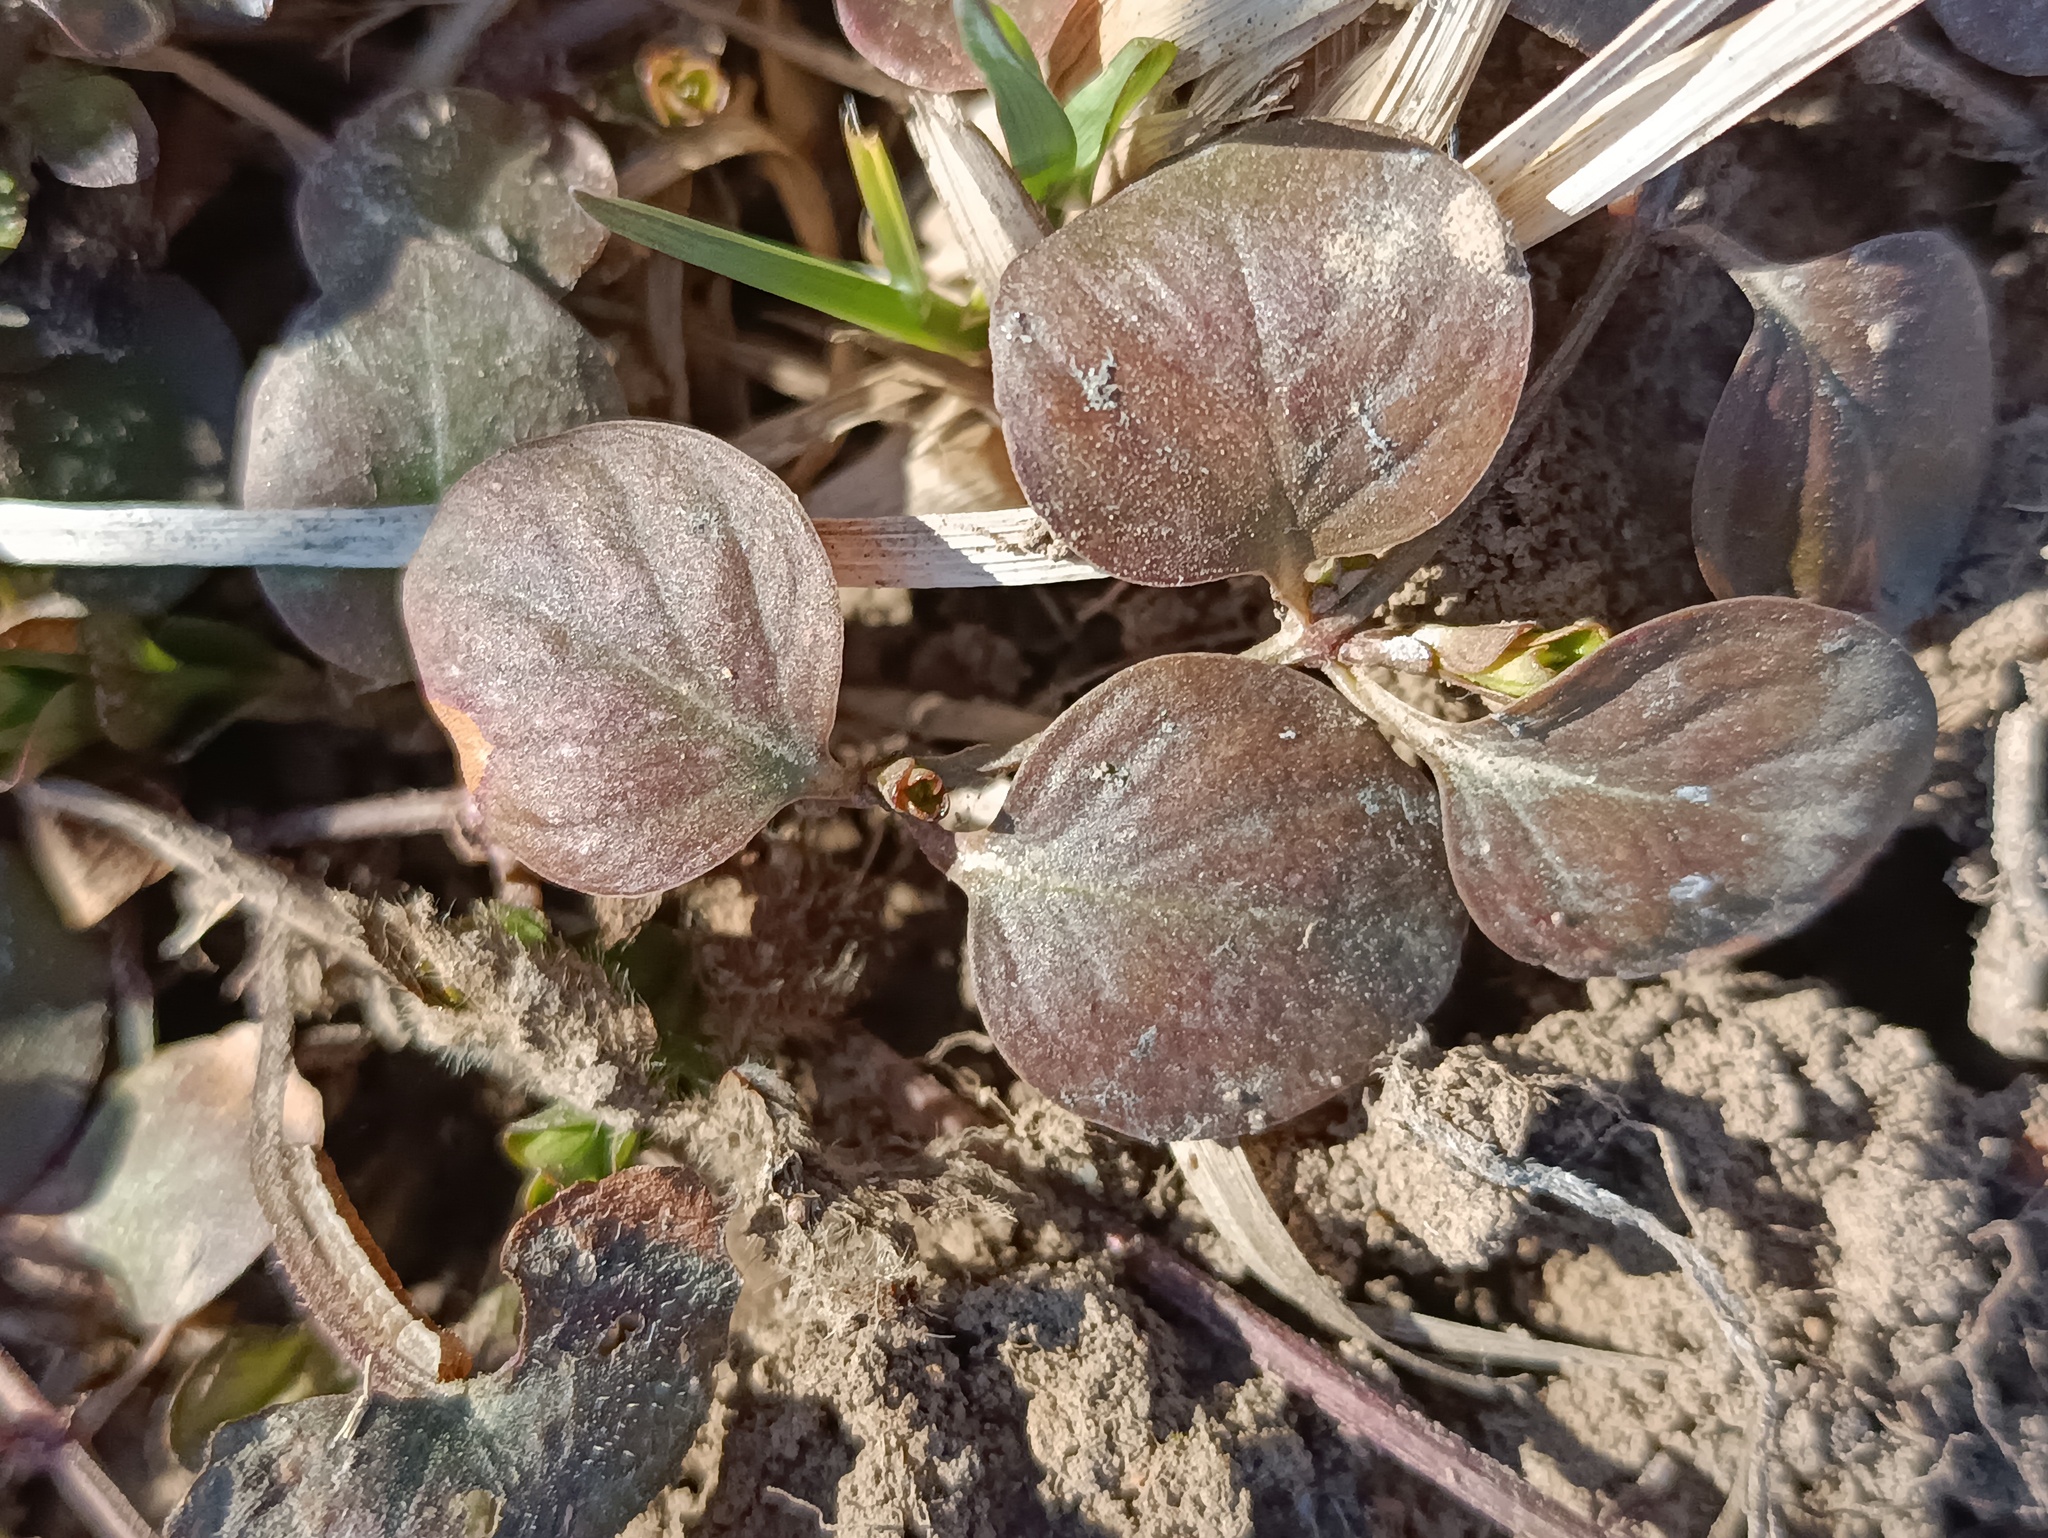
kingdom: Plantae
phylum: Tracheophyta
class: Magnoliopsida
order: Ericales
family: Primulaceae
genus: Lysimachia
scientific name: Lysimachia nummularia
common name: Moneywort
